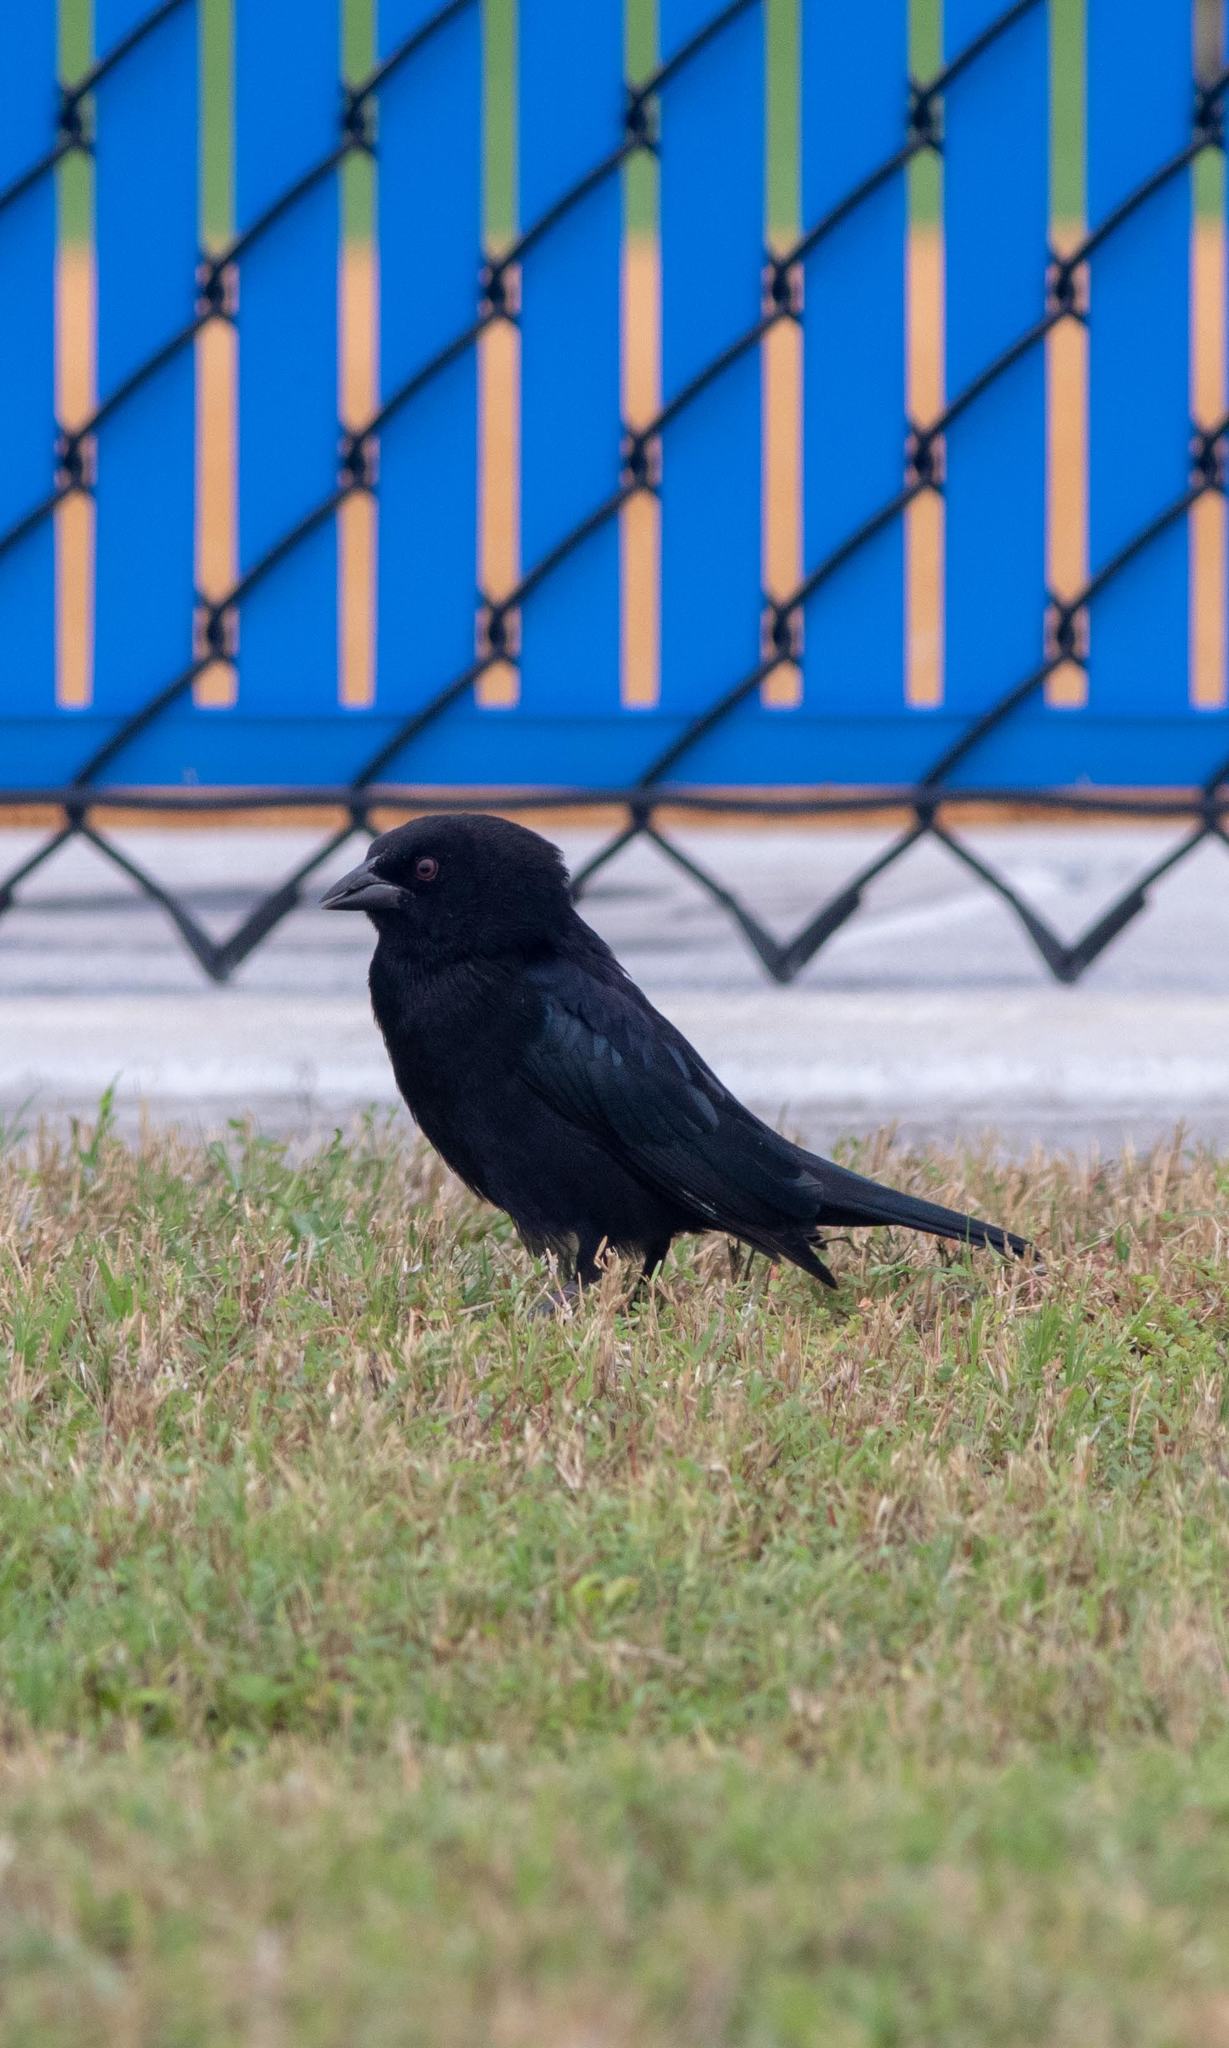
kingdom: Animalia
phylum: Chordata
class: Aves
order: Passeriformes
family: Icteridae
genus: Molothrus
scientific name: Molothrus aeneus
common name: Bronzed cowbird
